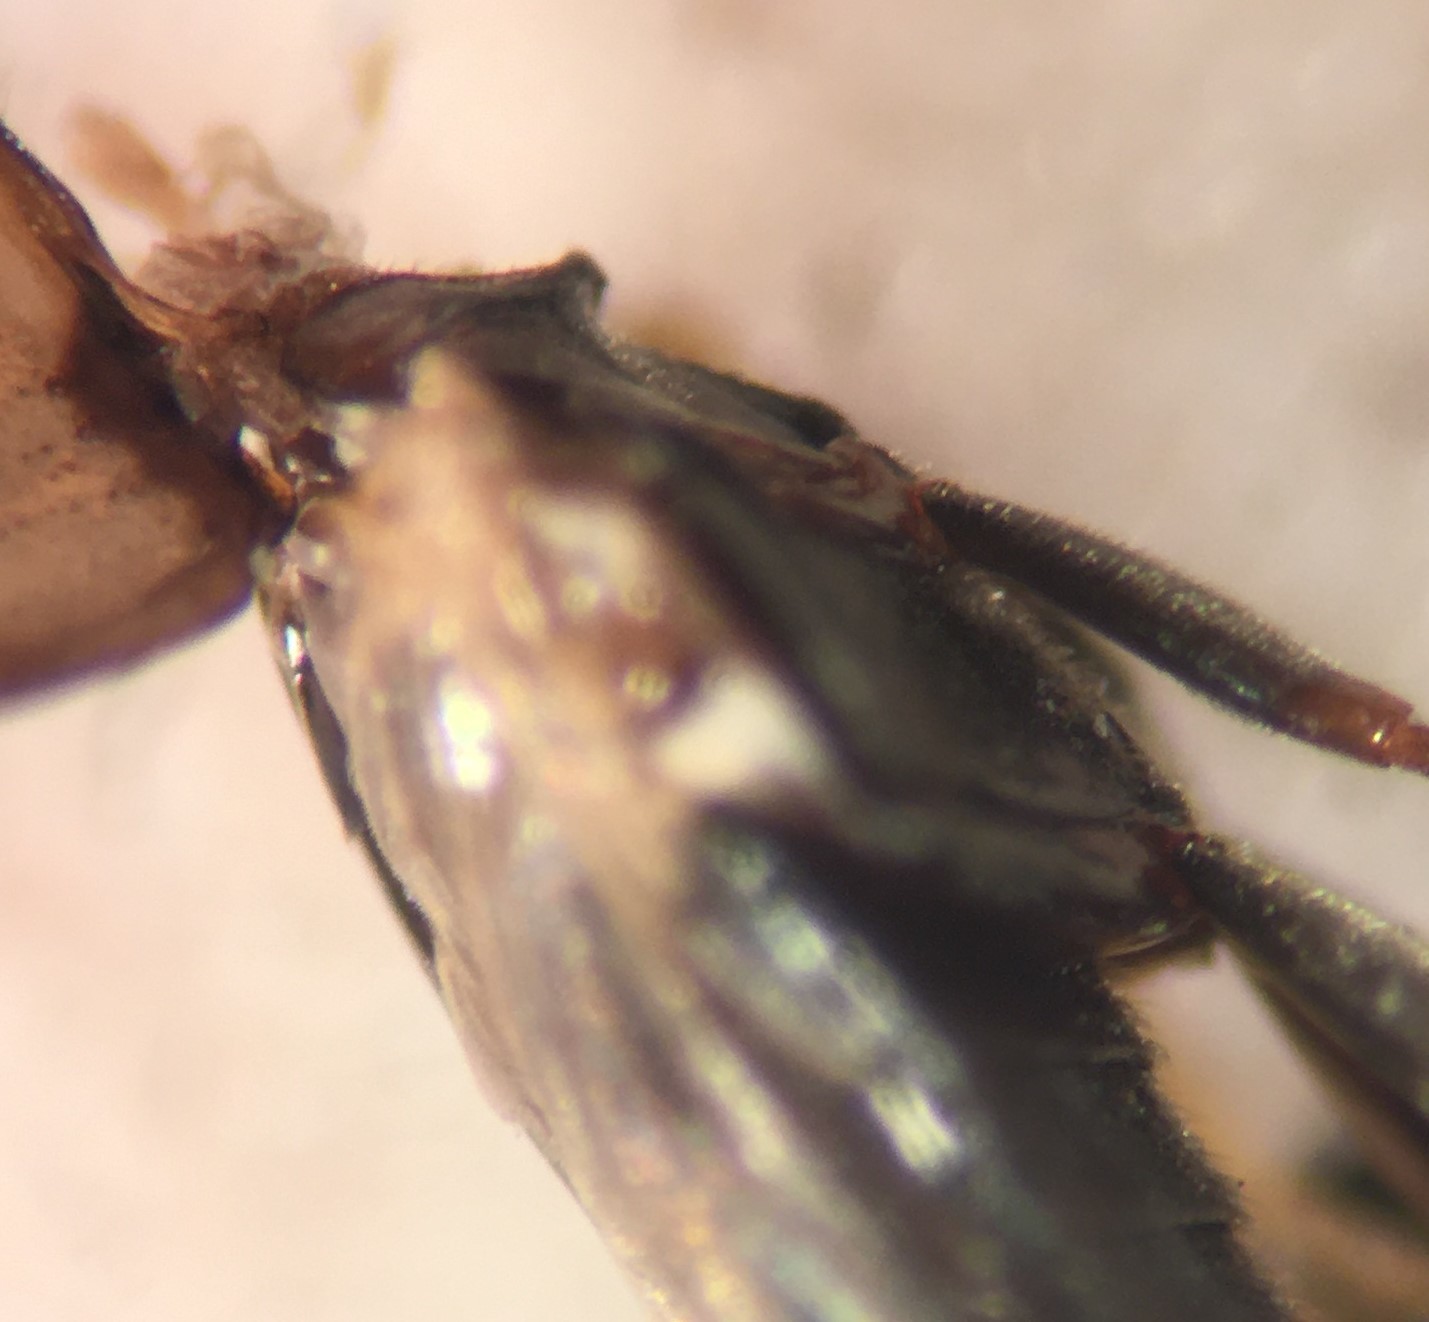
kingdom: Animalia
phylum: Arthropoda
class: Insecta
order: Coleoptera
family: Hydrophilidae
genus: Enochrus
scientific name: Enochrus ochraceus
